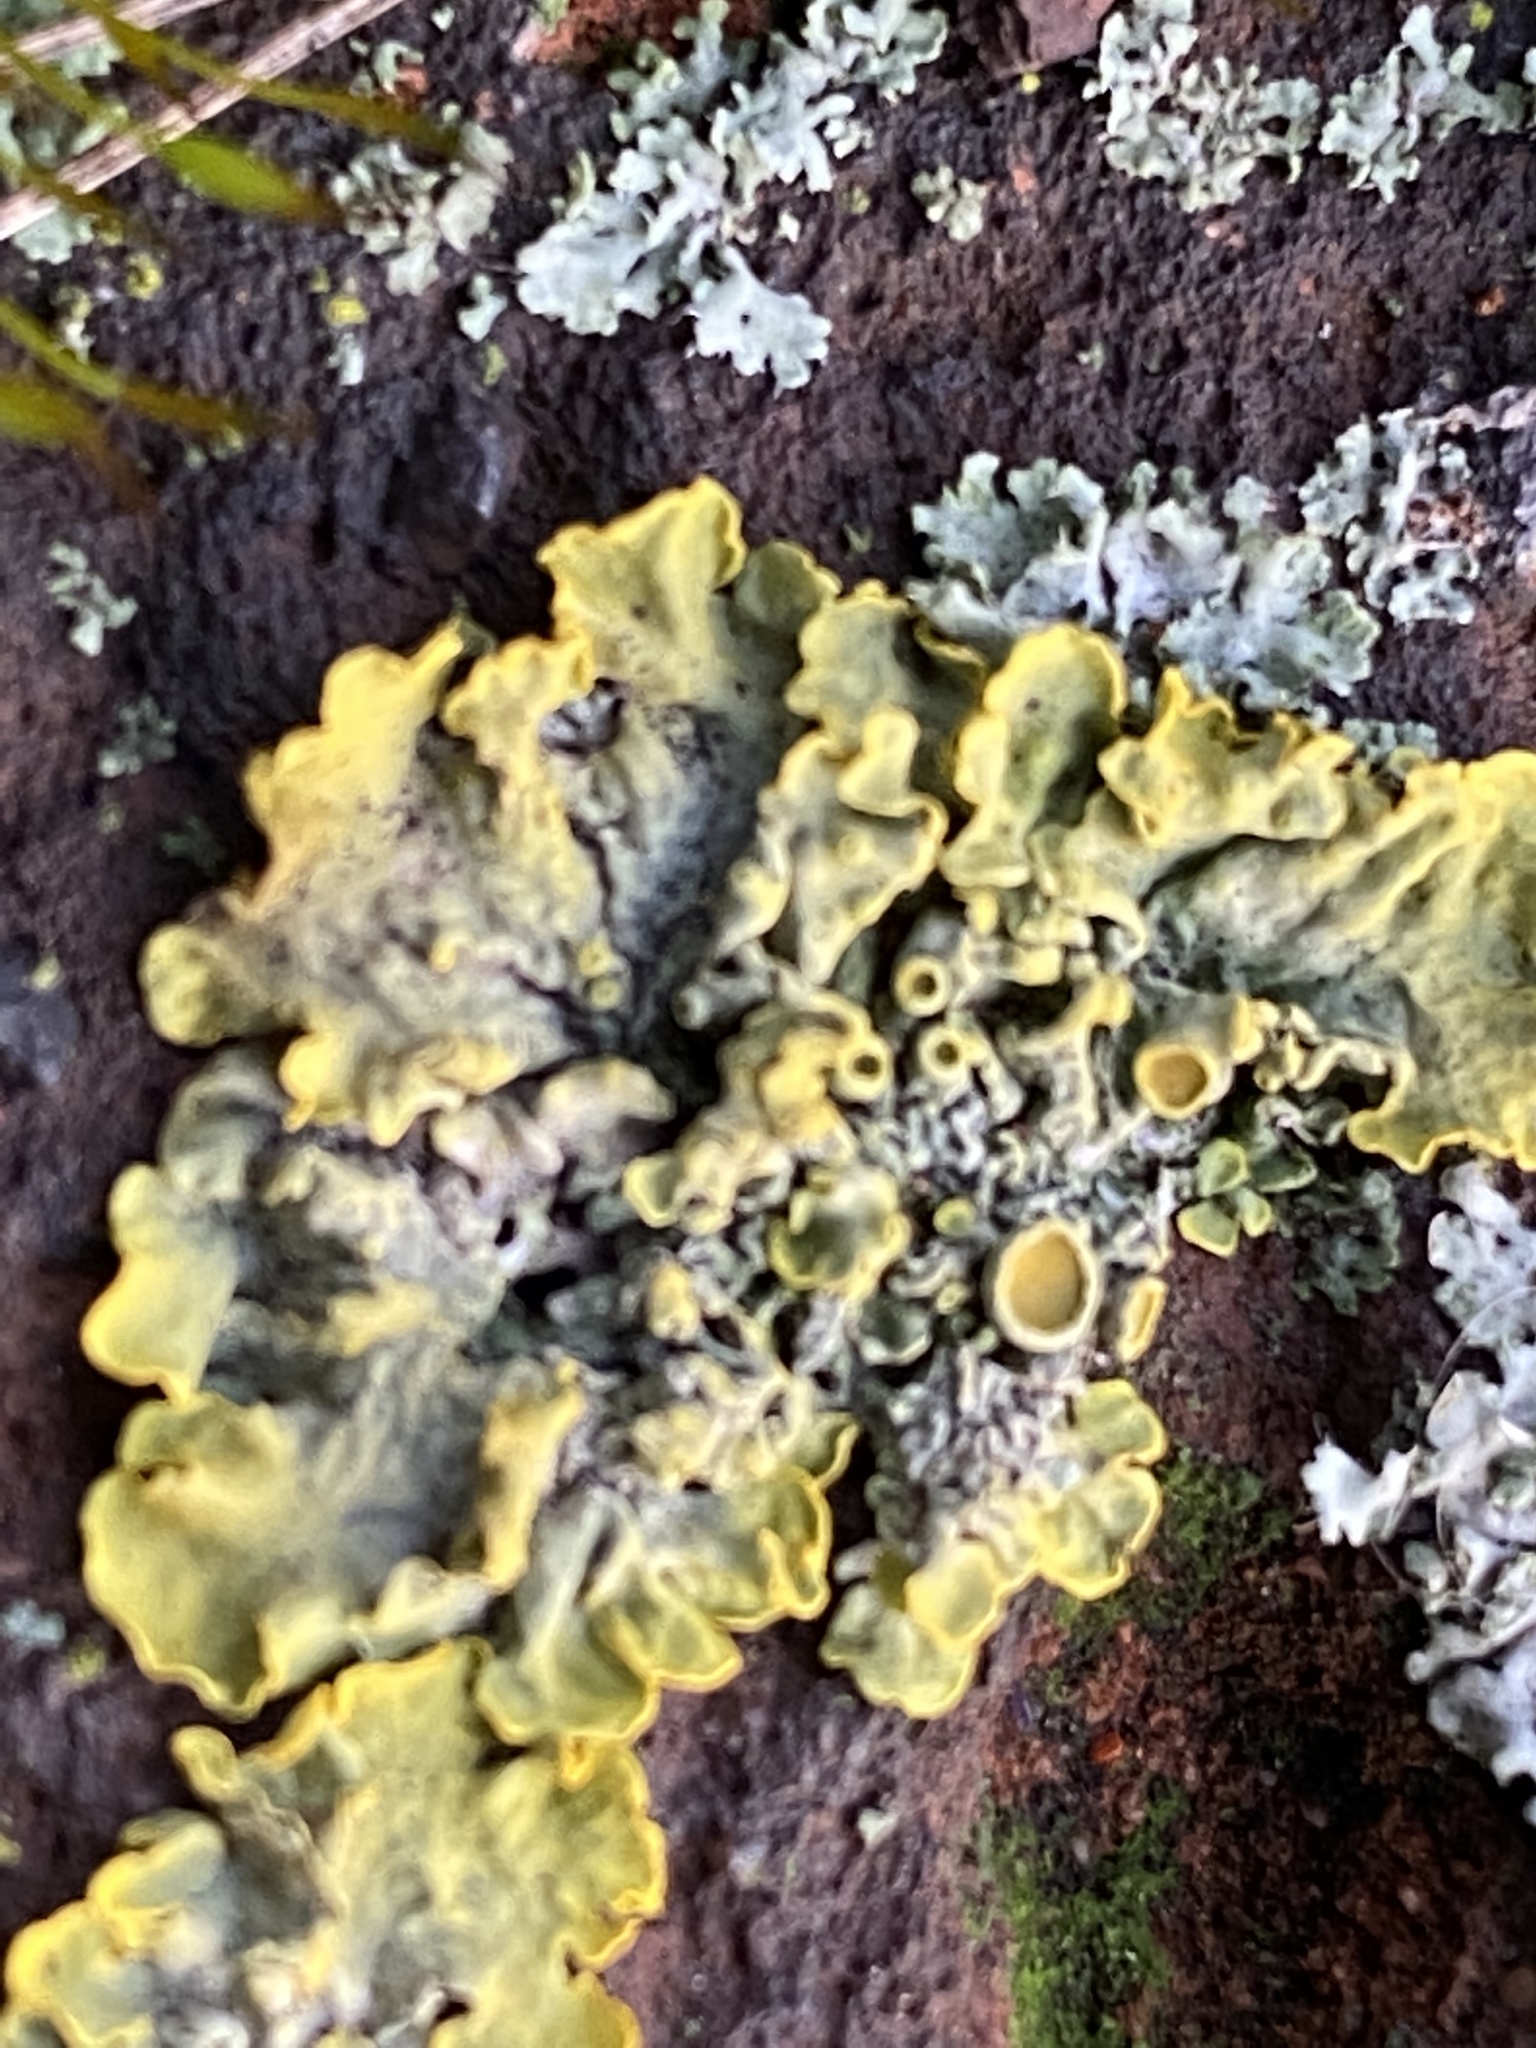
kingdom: Fungi
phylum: Ascomycota
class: Lecanoromycetes
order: Teloschistales
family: Teloschistaceae
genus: Xanthoria
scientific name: Xanthoria parietina
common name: Common orange lichen
